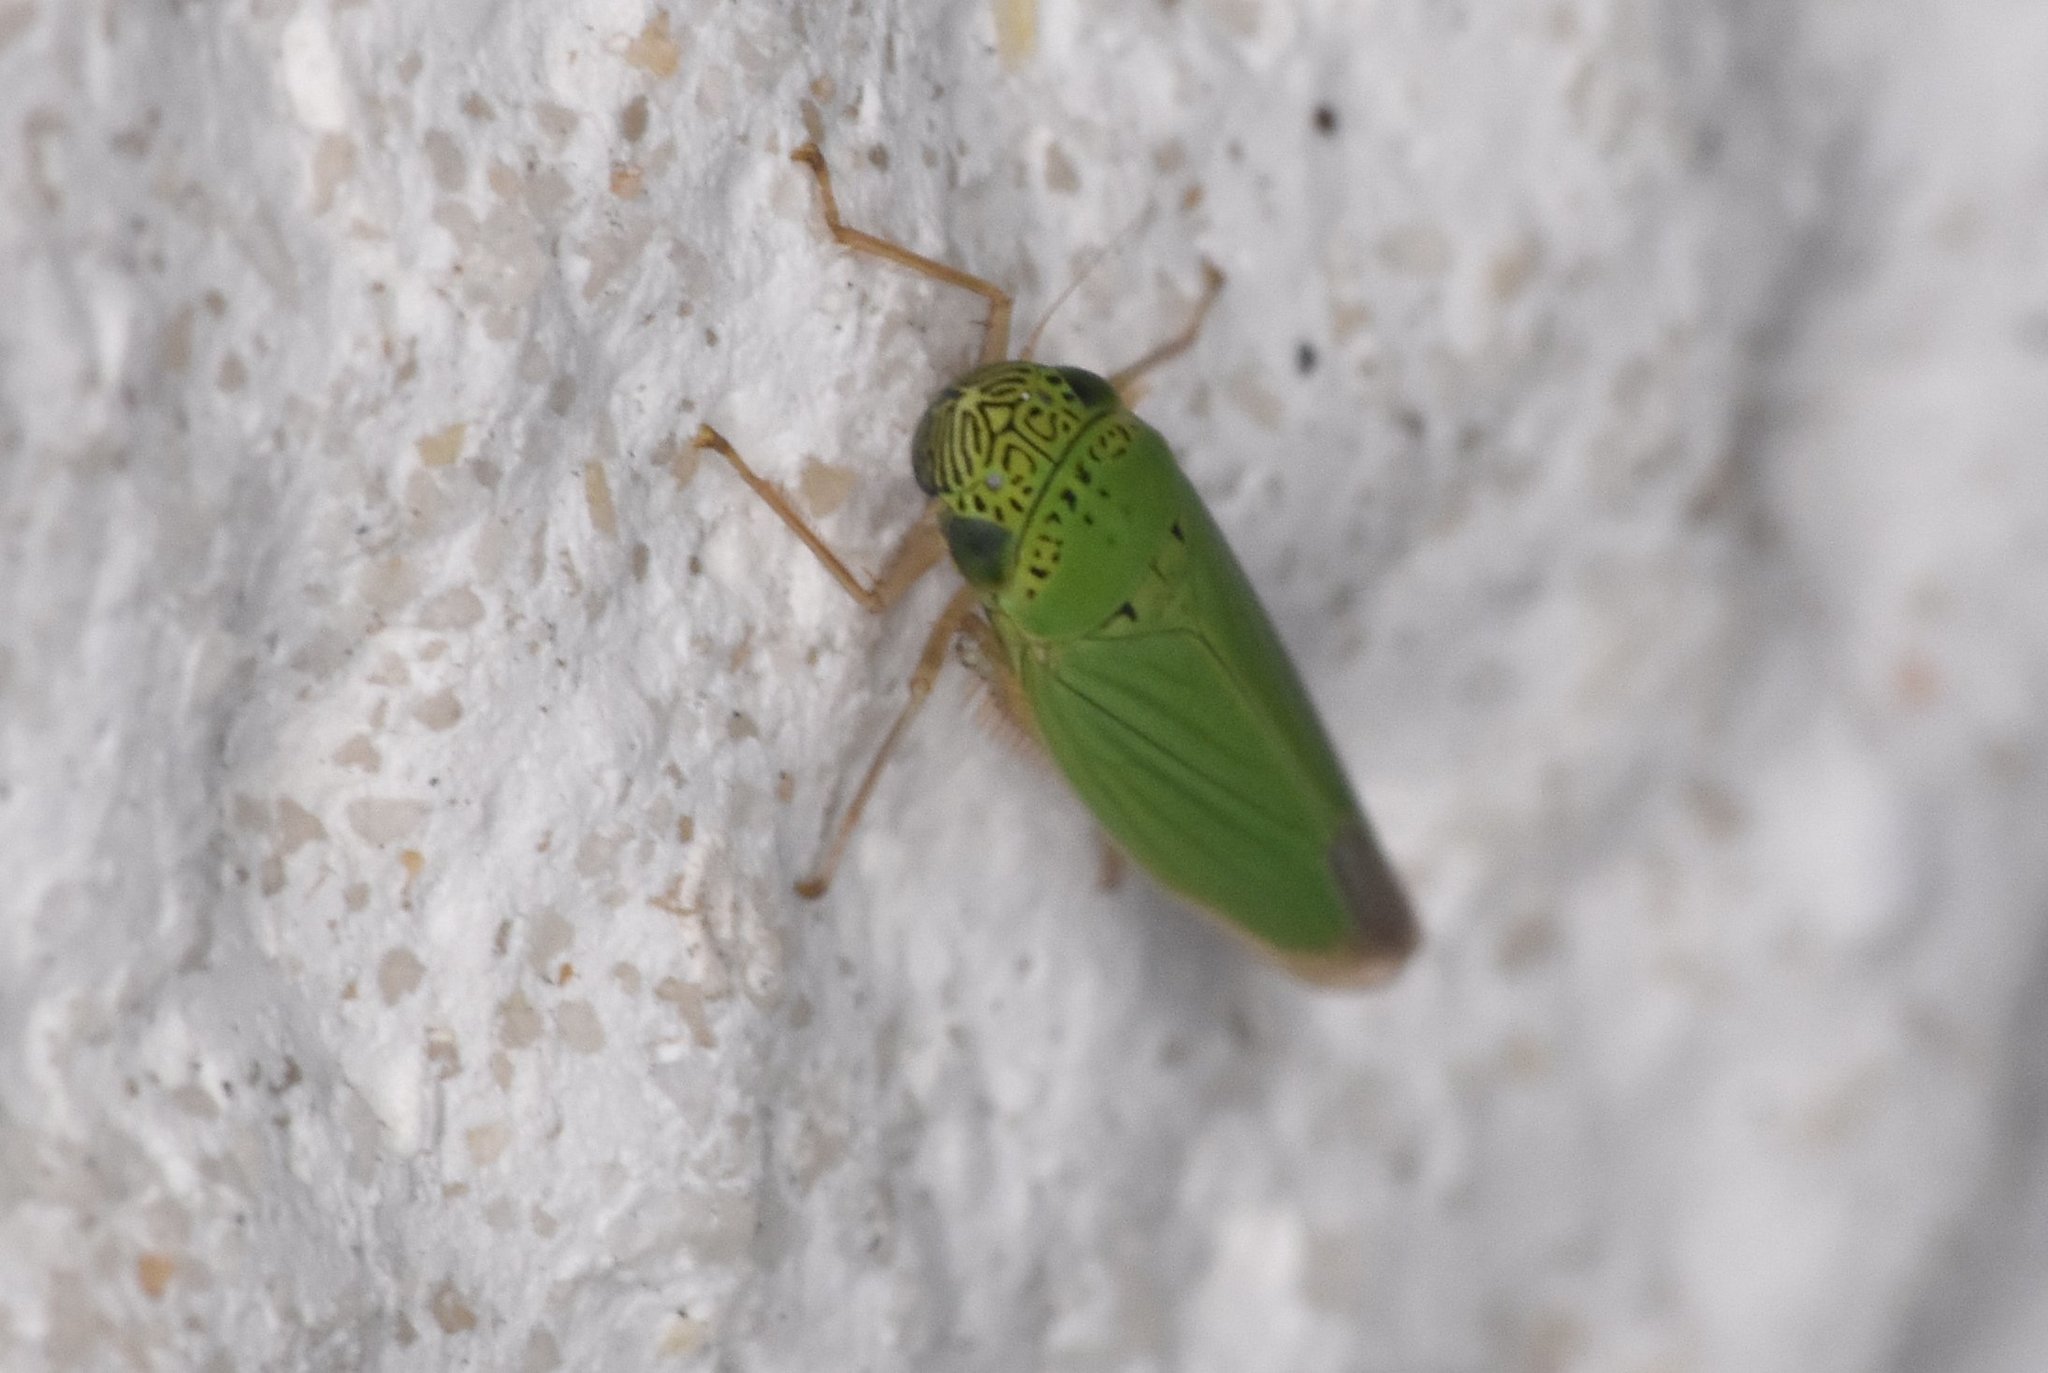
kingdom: Animalia
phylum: Arthropoda
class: Insecta
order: Hemiptera
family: Cicadellidae
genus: Hortensia
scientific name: Hortensia similis
